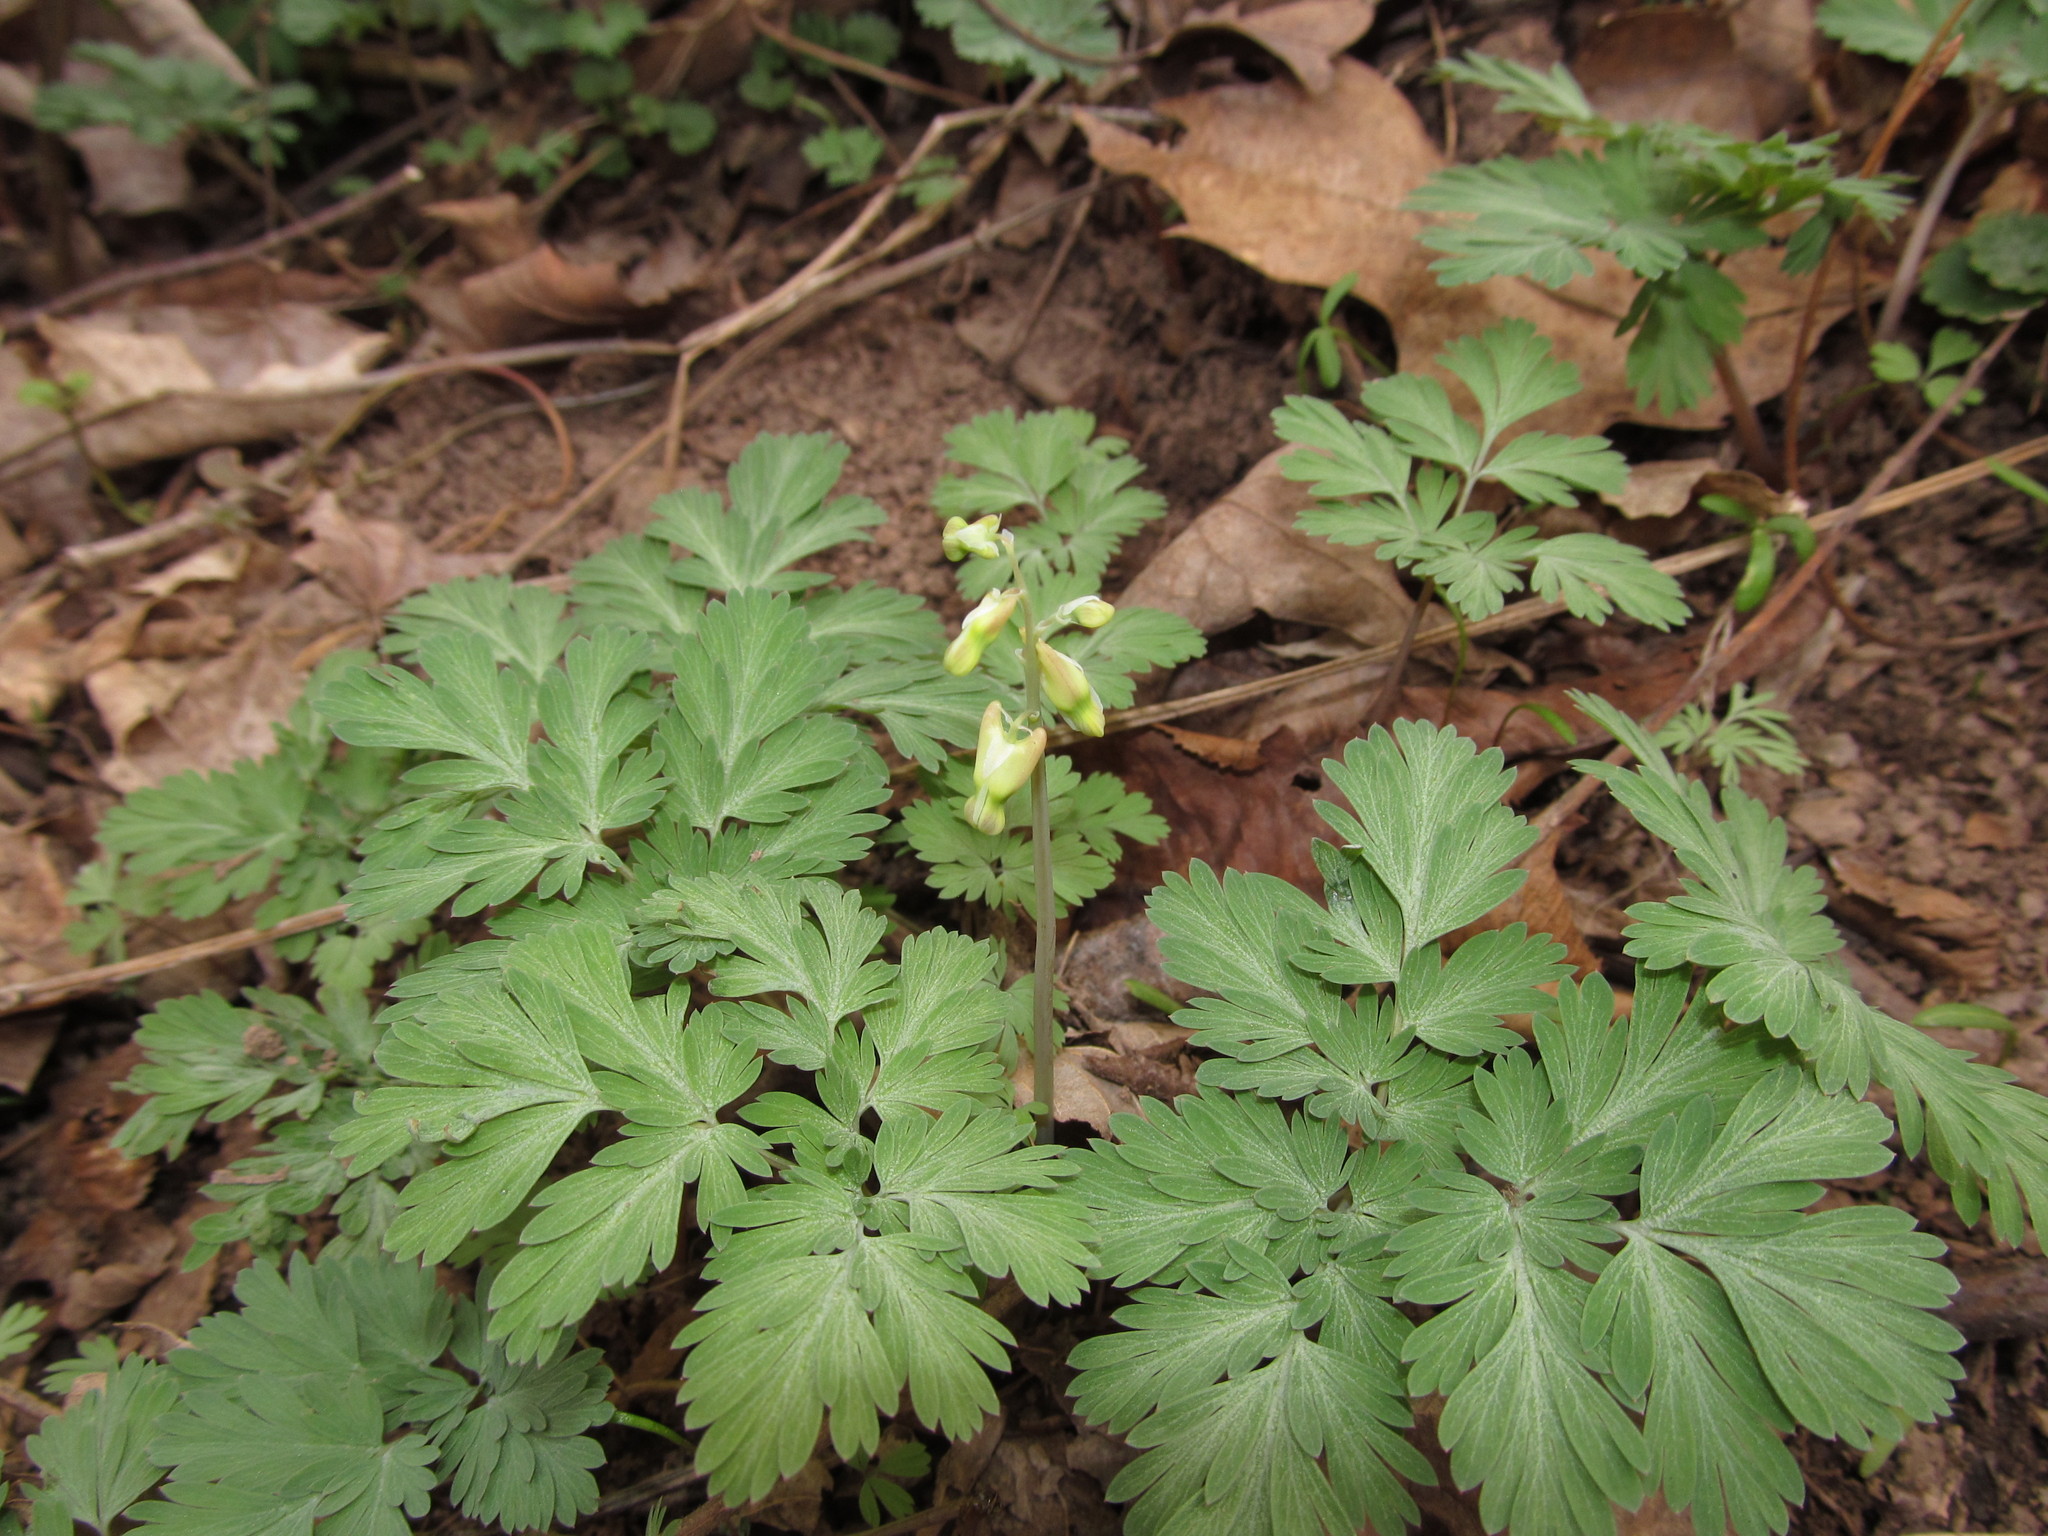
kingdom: Plantae
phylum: Tracheophyta
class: Magnoliopsida
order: Ranunculales
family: Papaveraceae
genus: Dicentra
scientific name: Dicentra cucullaria
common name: Dutchman's breeches
